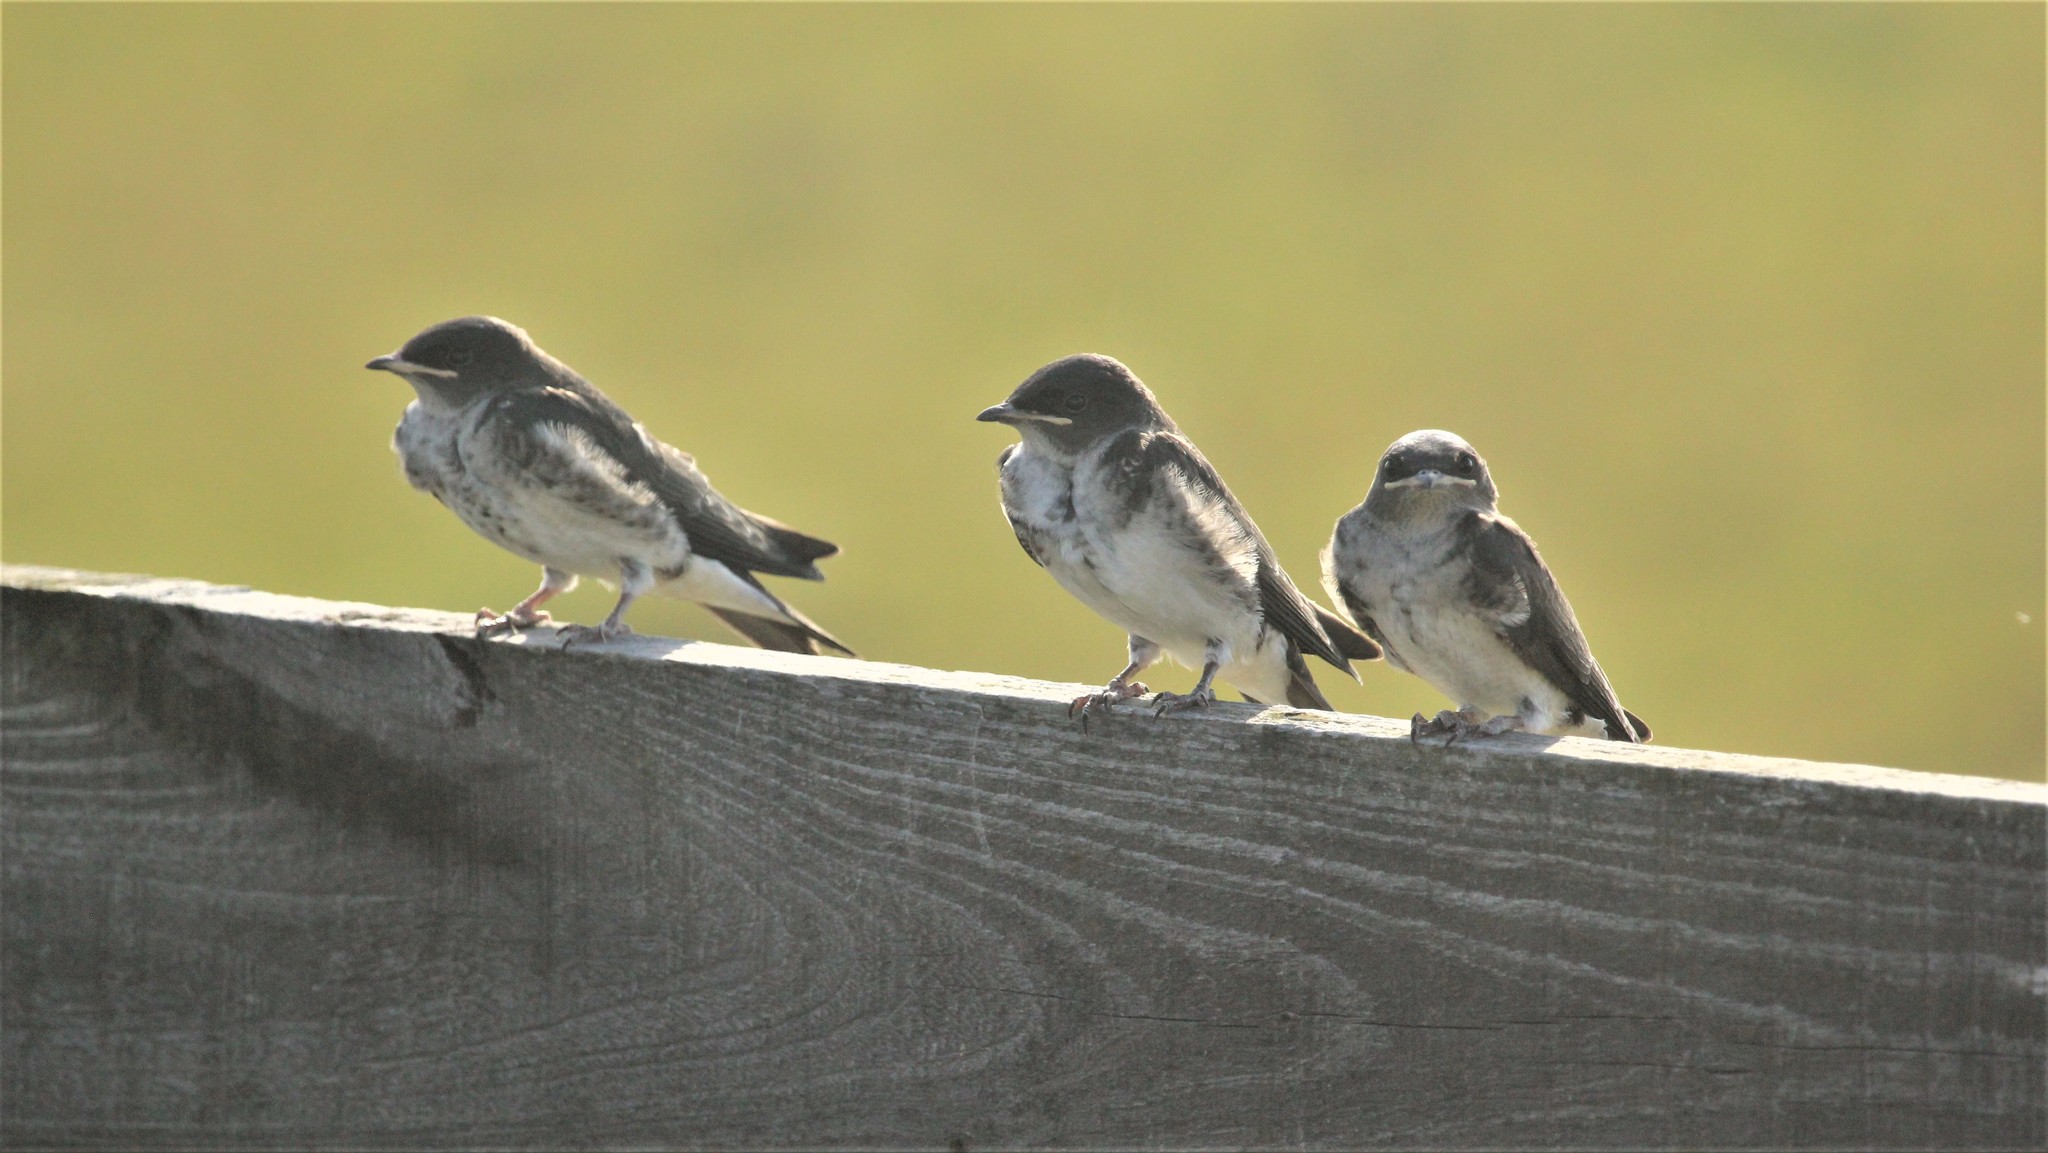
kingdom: Animalia
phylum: Chordata
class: Aves
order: Passeriformes
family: Hirundinidae
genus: Progne
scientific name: Progne tapera
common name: Brown-chested martin
